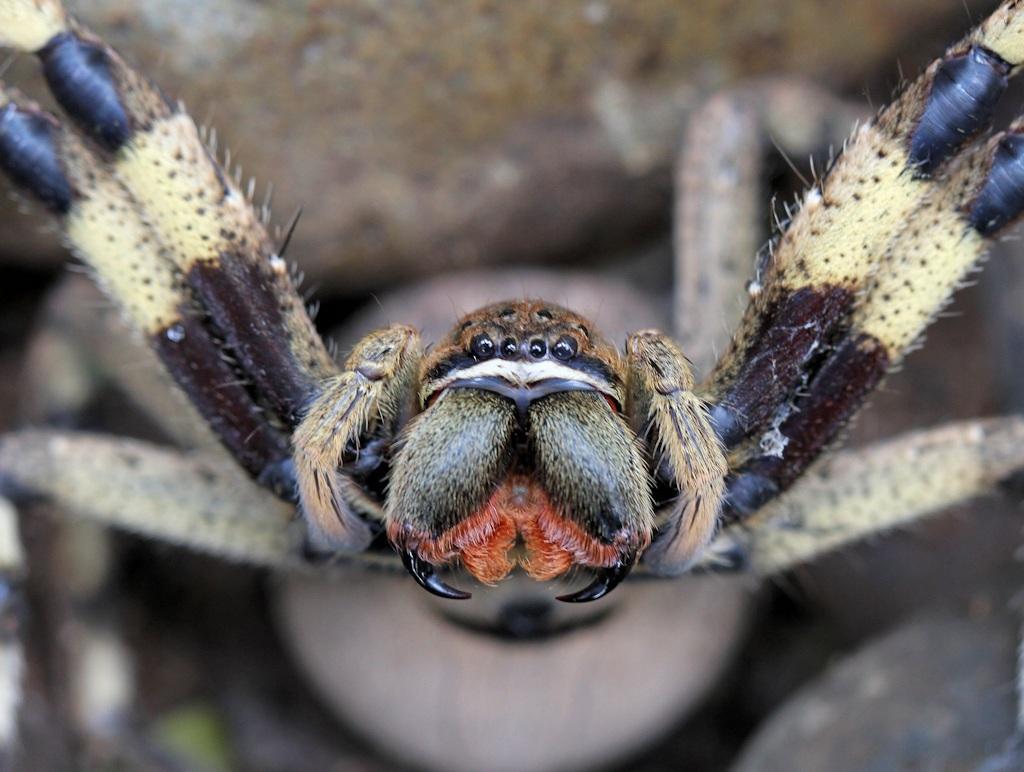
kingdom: Animalia
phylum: Arthropoda
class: Arachnida
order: Araneae
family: Sparassidae
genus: Palystes
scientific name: Palystes superciliosus
